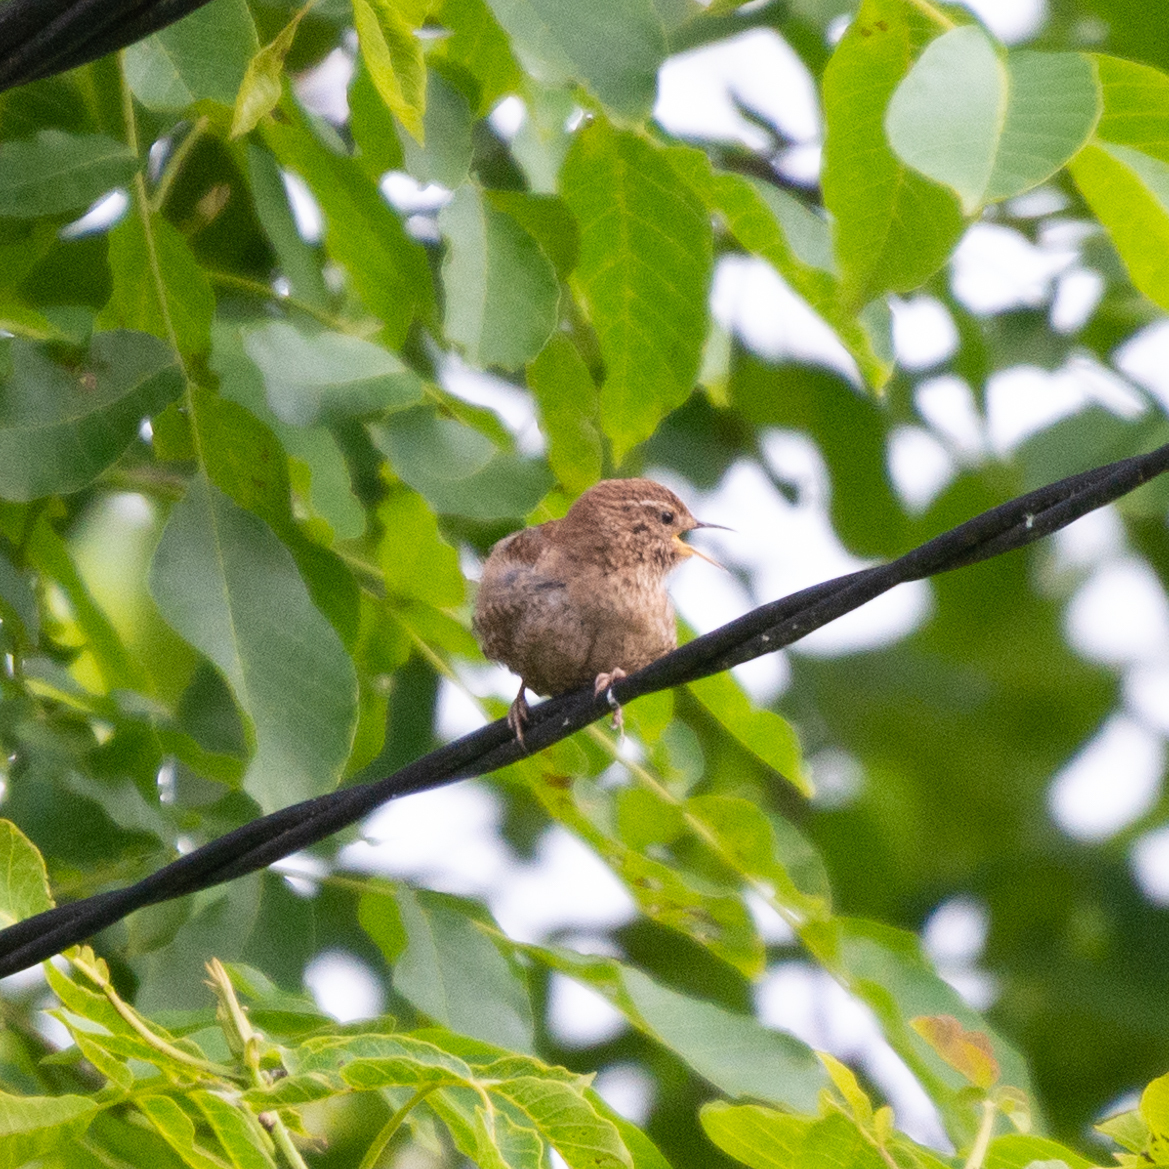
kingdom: Animalia
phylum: Chordata
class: Aves
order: Passeriformes
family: Troglodytidae
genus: Troglodytes
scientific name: Troglodytes troglodytes
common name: Eurasian wren
